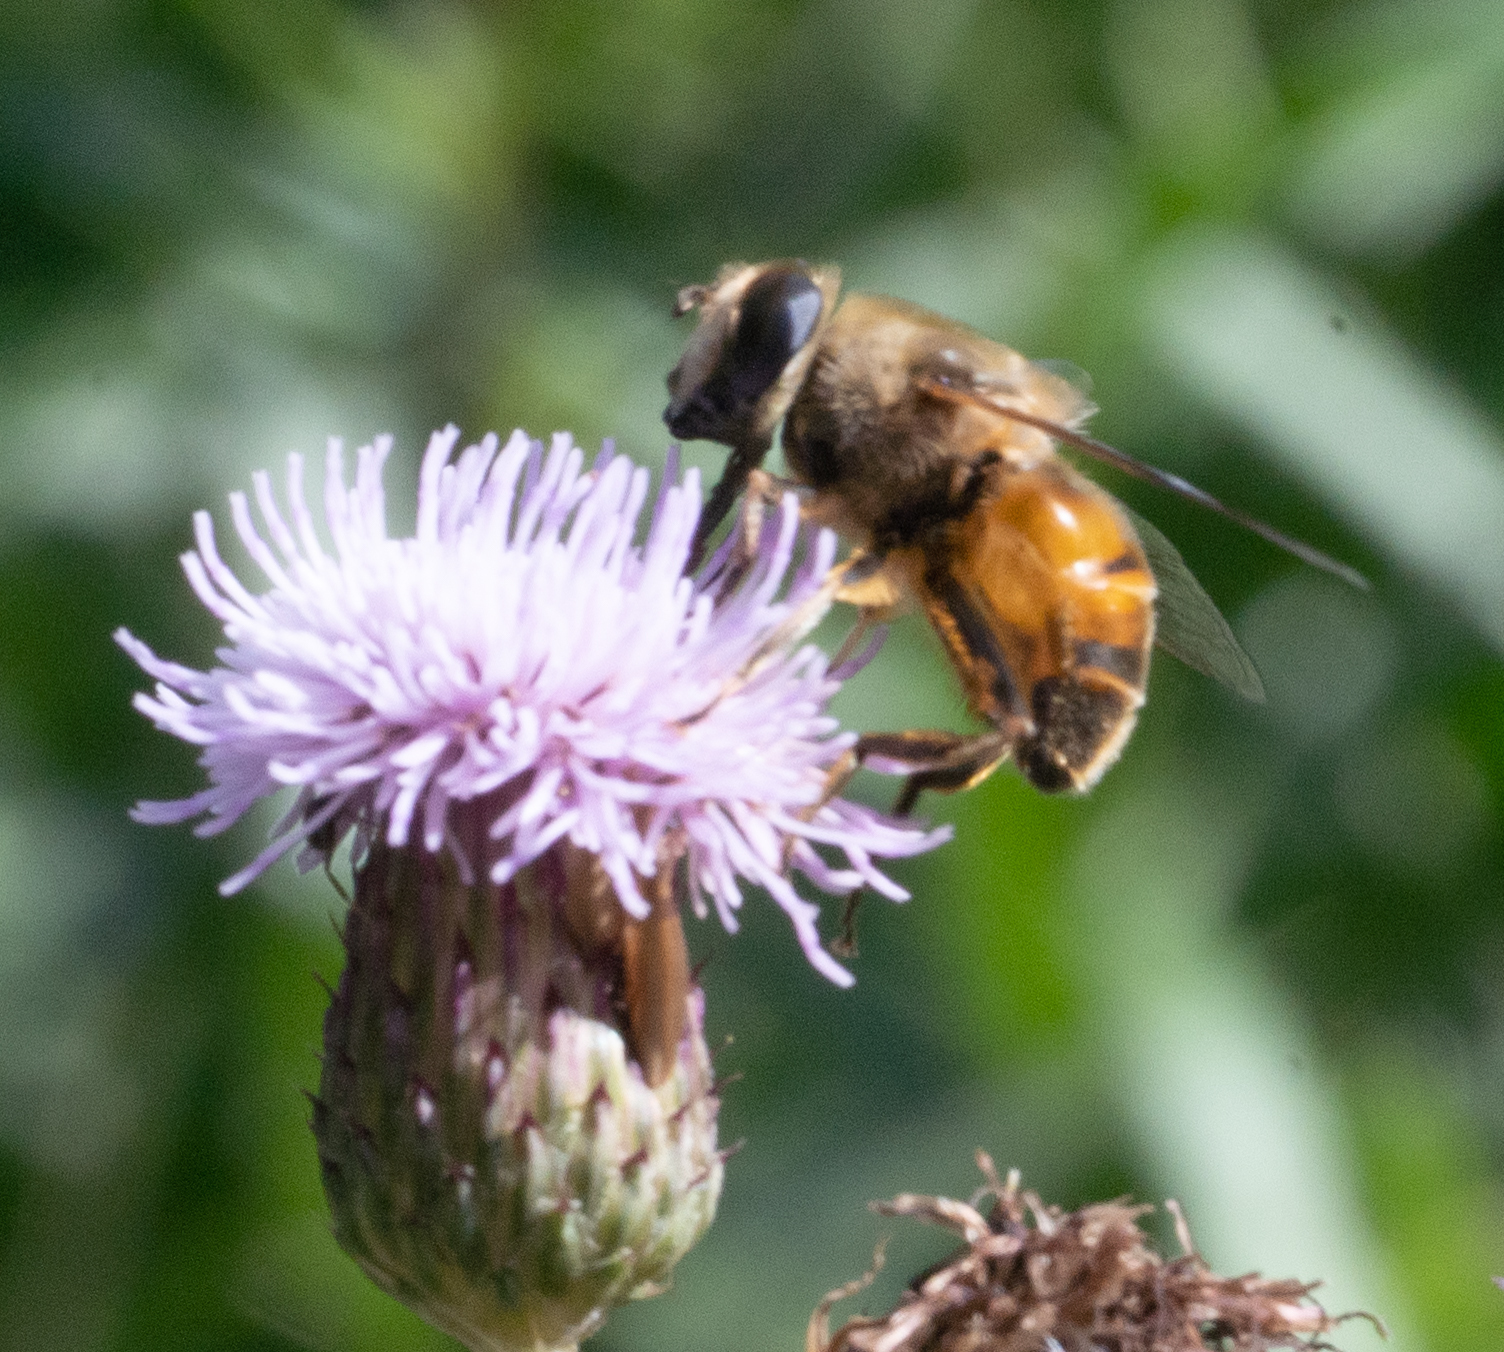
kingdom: Animalia
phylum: Arthropoda
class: Insecta
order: Diptera
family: Syrphidae
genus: Eristalis
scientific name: Eristalis tenax
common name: Drone fly
